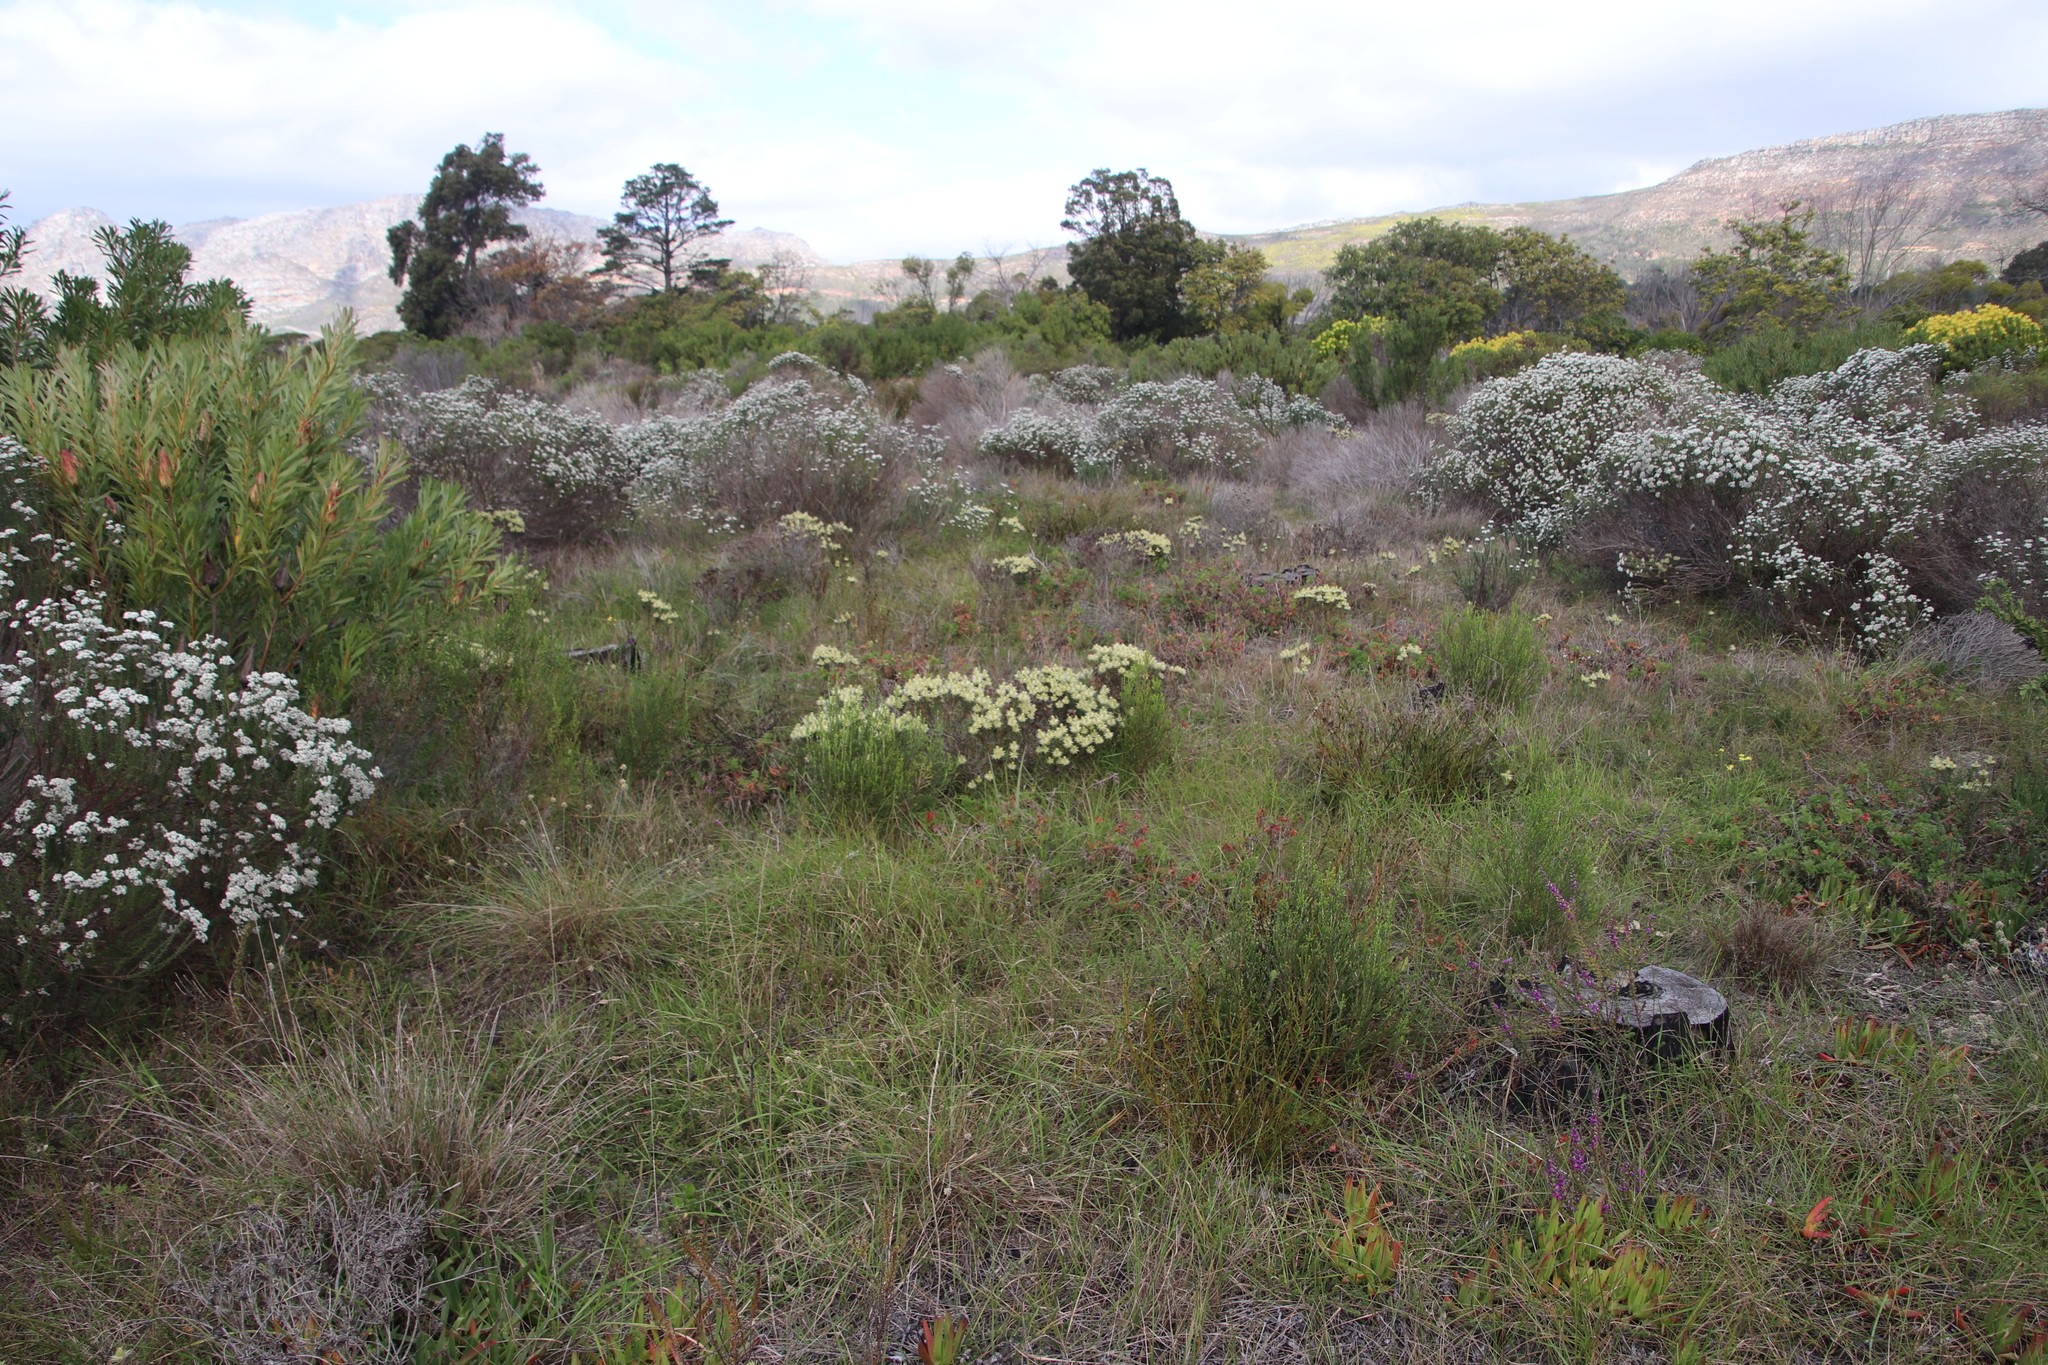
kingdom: Plantae
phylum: Tracheophyta
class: Magnoliopsida
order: Rosales
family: Rhamnaceae
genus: Phylica
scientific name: Phylica pubescens
